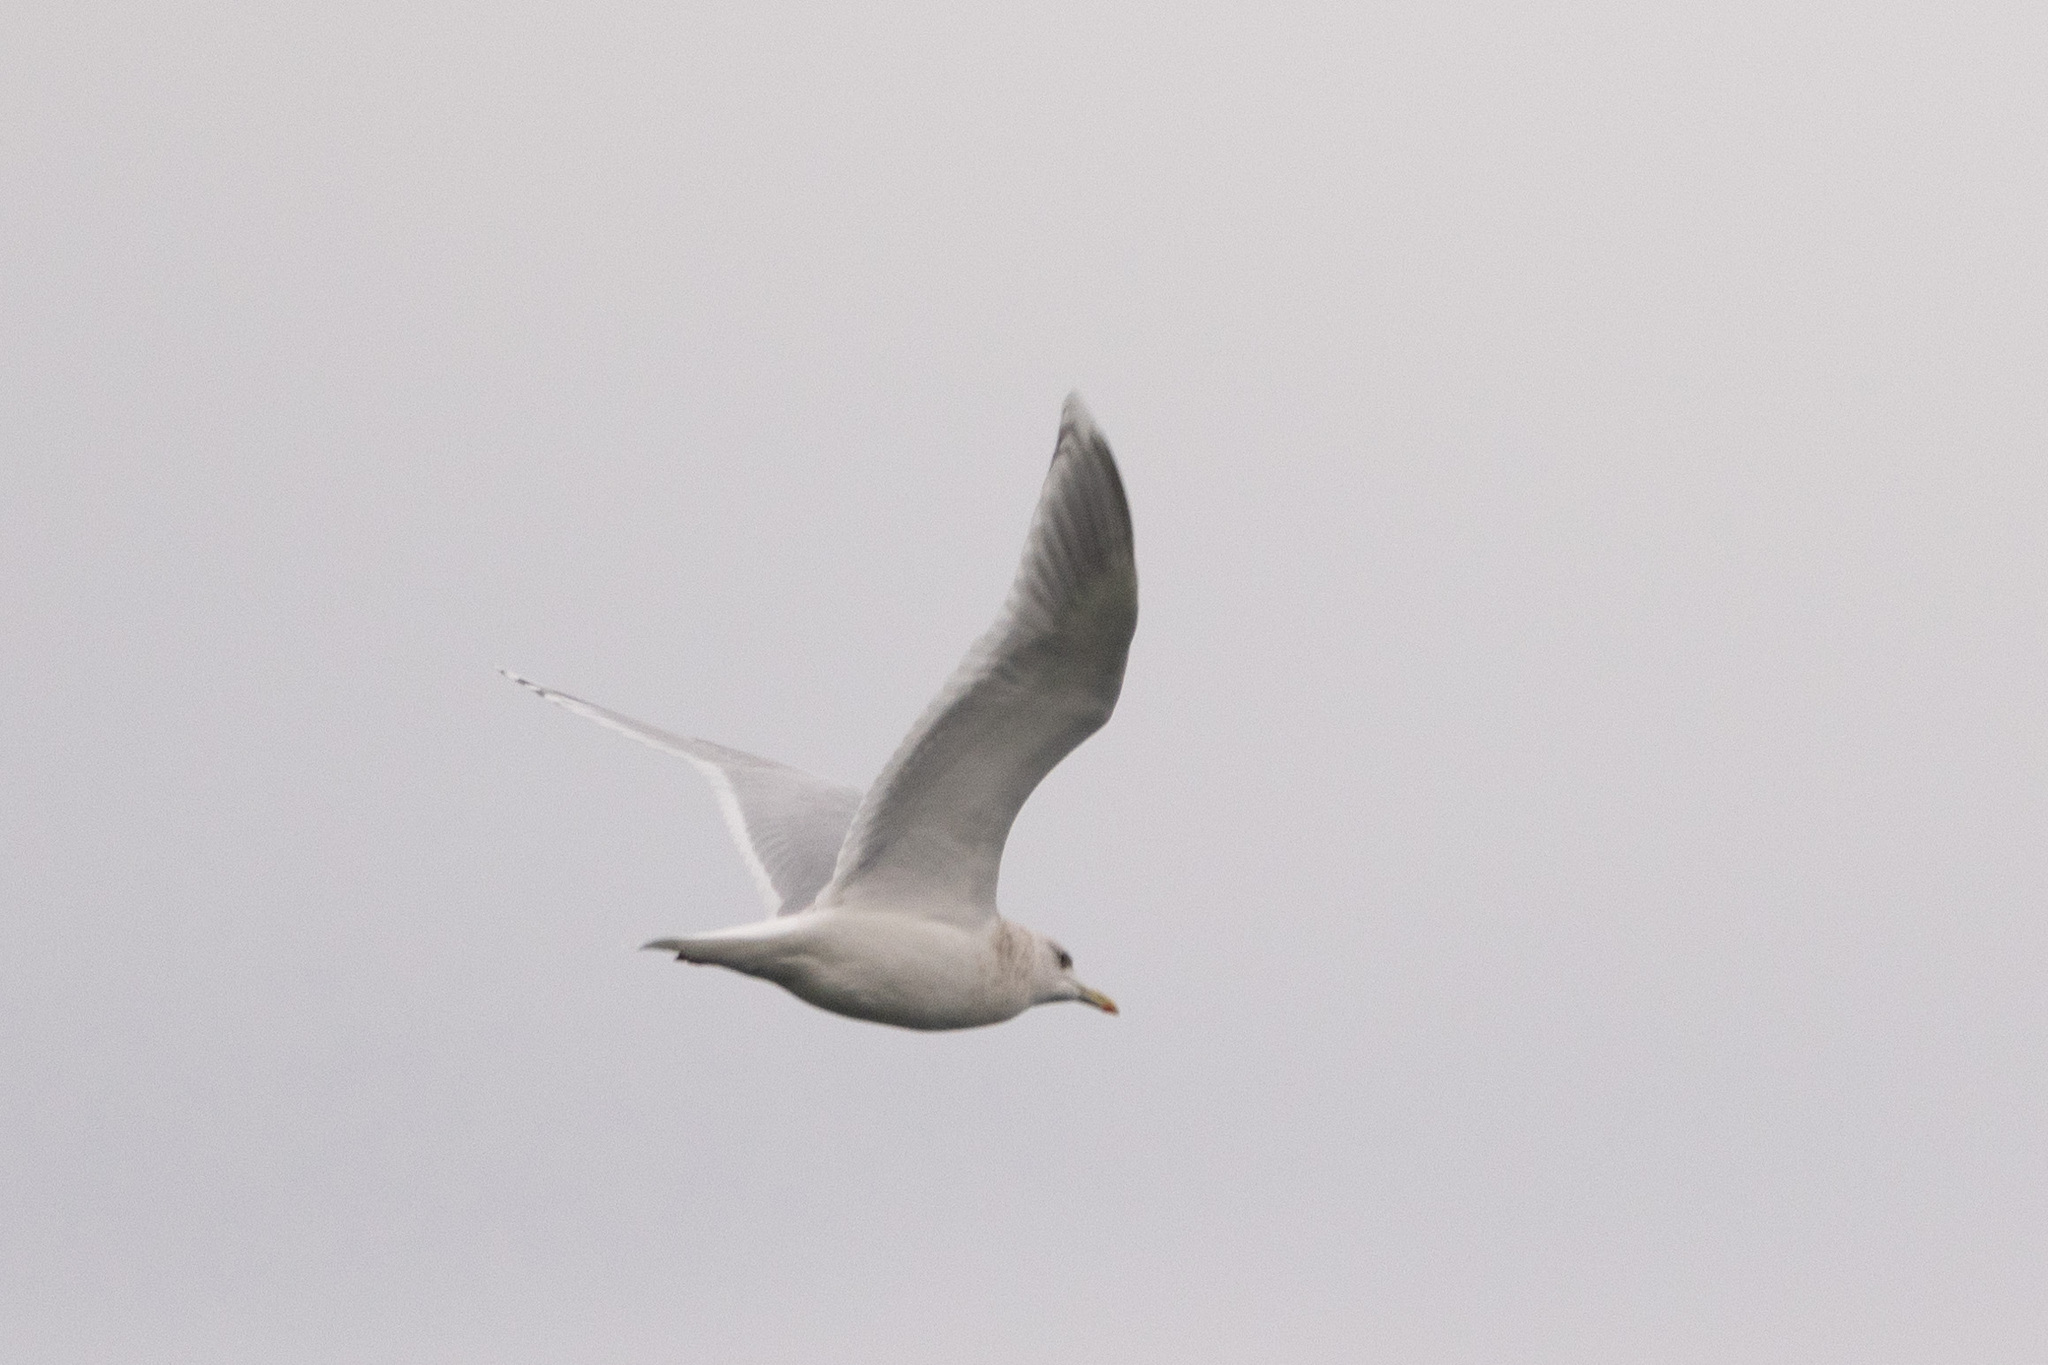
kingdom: Animalia
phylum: Chordata
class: Aves
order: Charadriiformes
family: Laridae
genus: Larus
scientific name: Larus glaucoides
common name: Iceland gull
